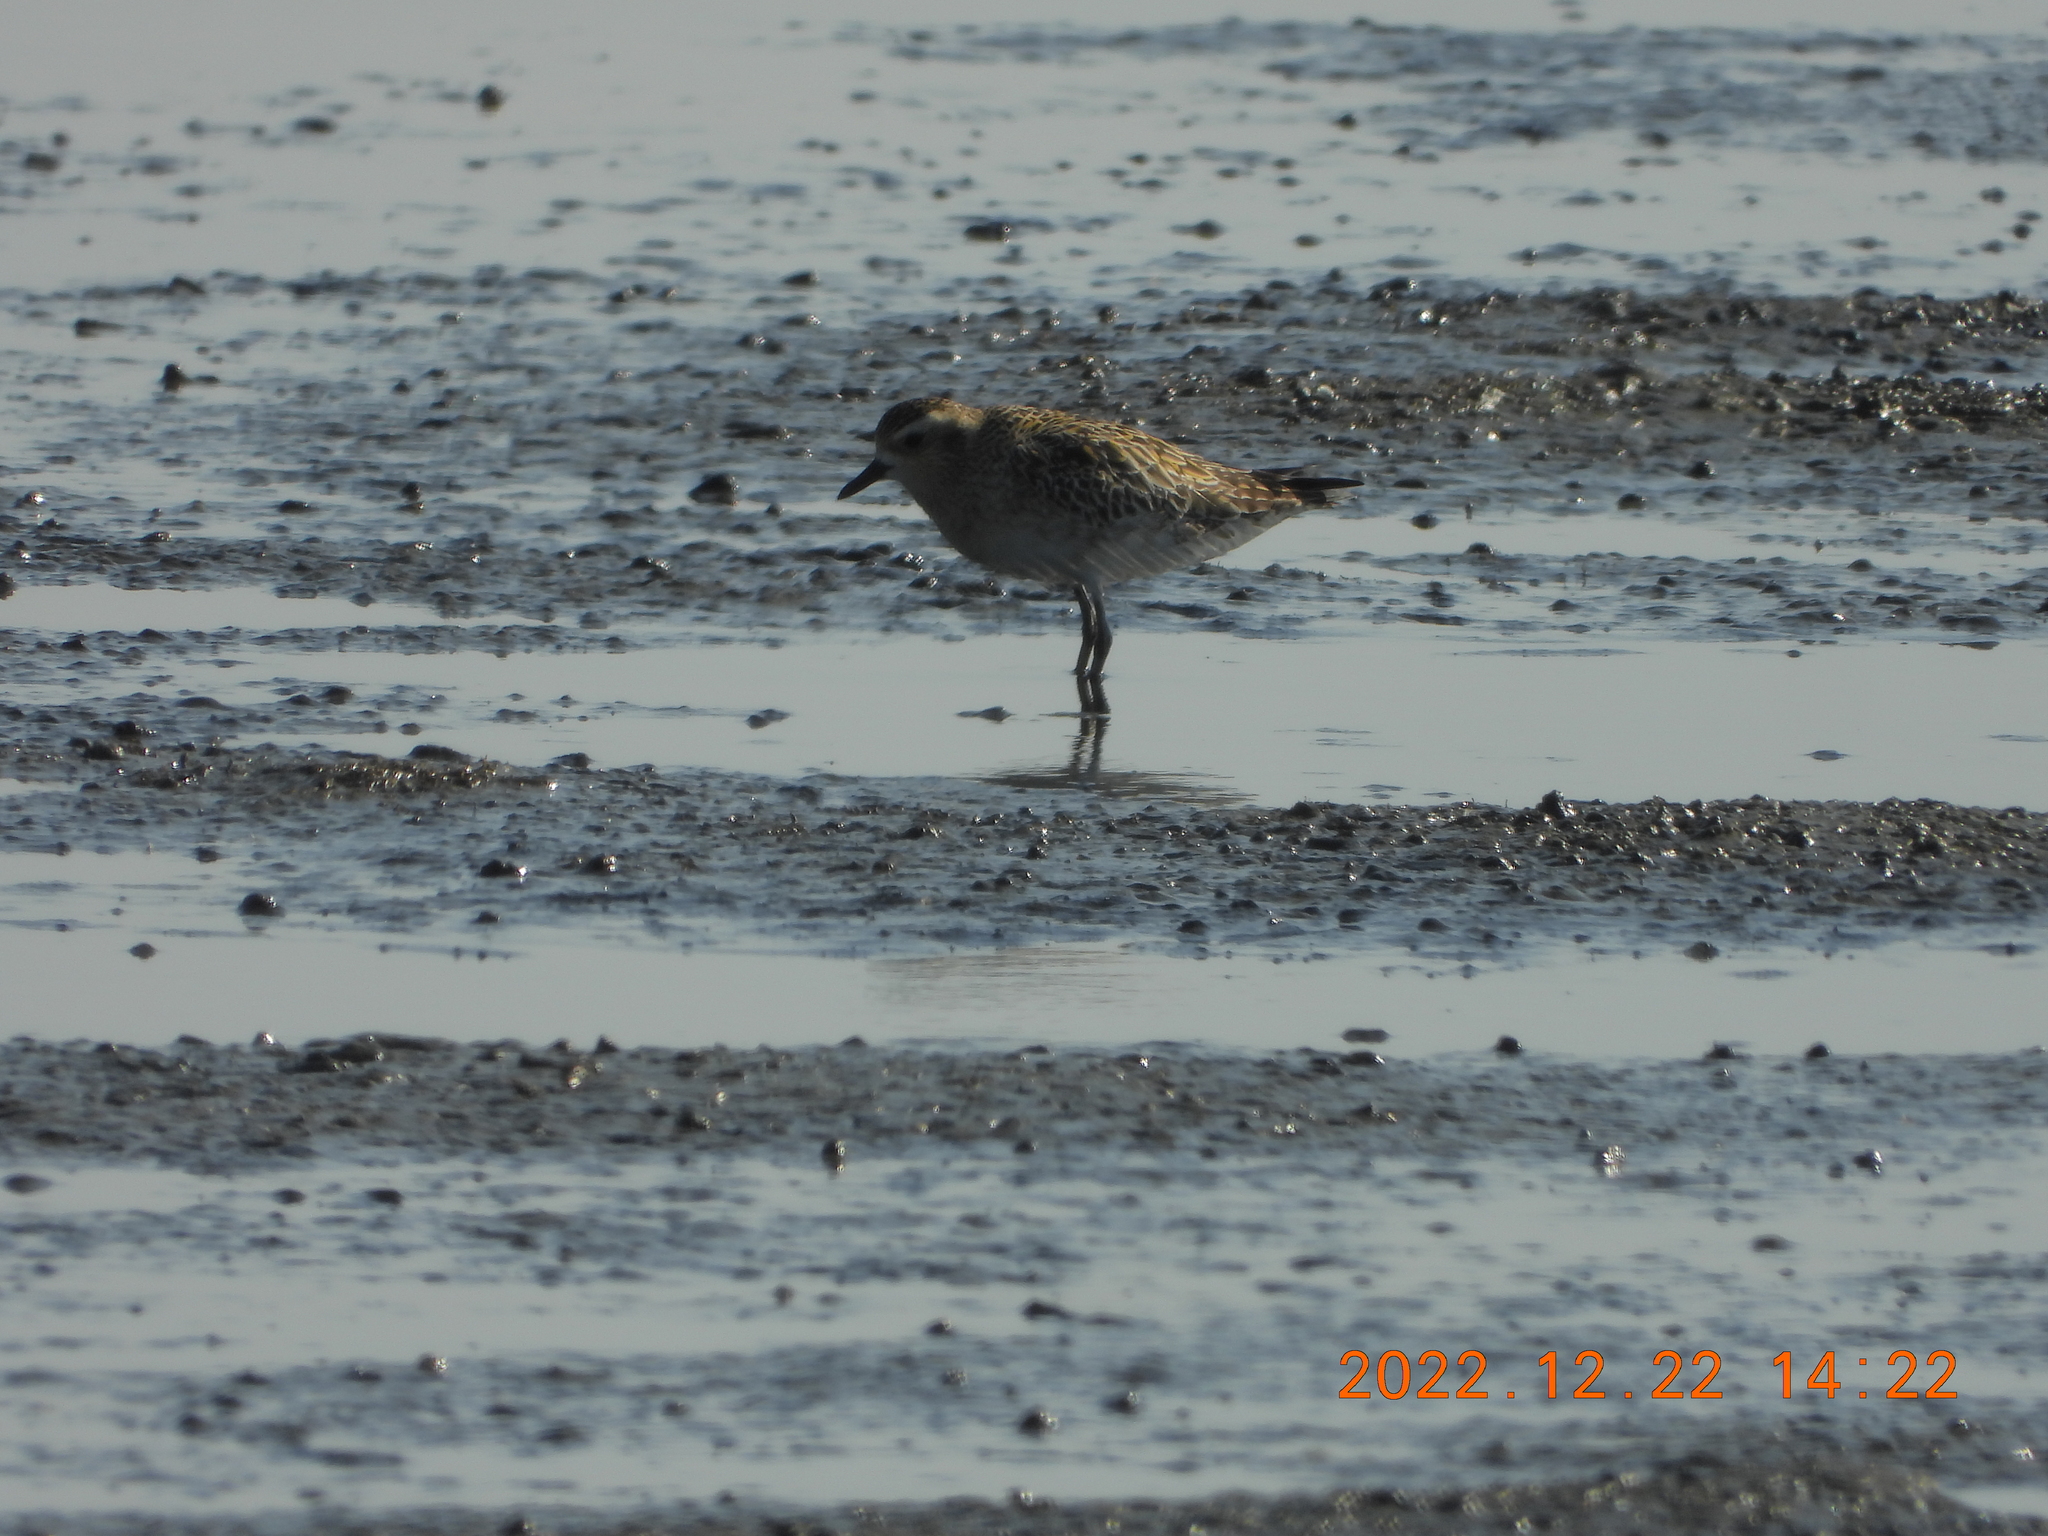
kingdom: Animalia
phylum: Chordata
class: Aves
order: Charadriiformes
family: Charadriidae
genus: Pluvialis
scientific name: Pluvialis fulva
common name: Pacific golden plover
